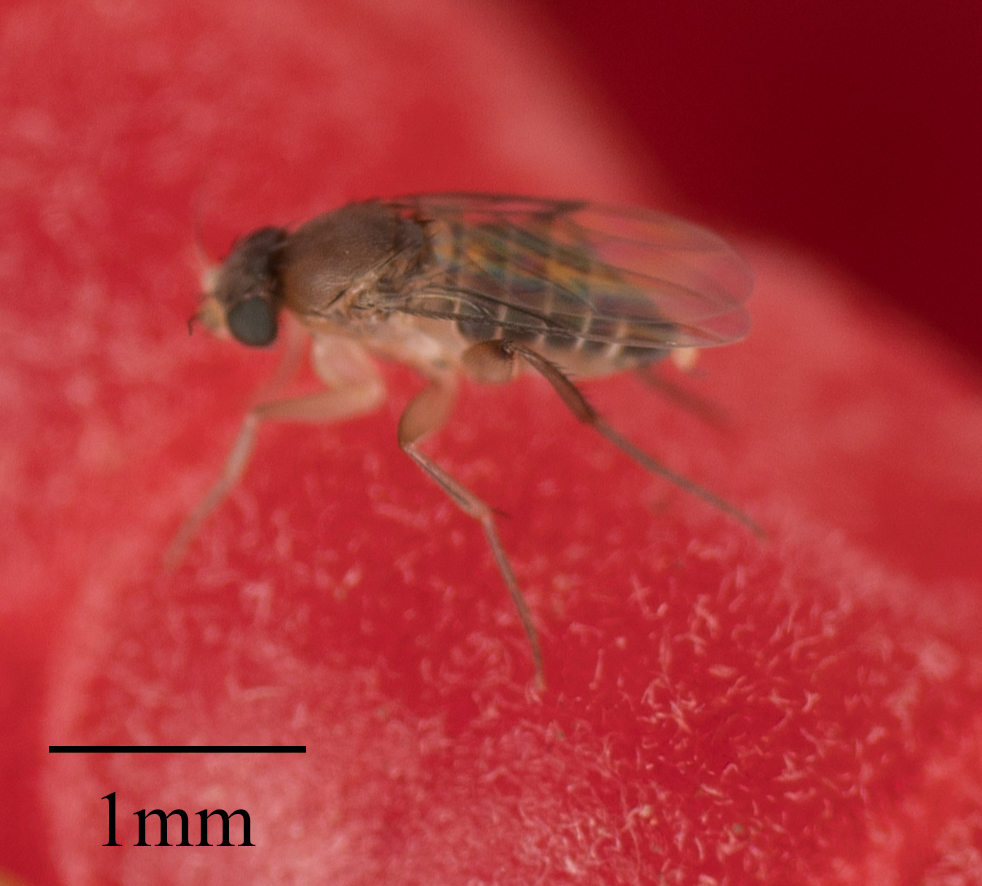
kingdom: Animalia
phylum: Arthropoda
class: Insecta
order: Diptera
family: Phoridae
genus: Megaselia
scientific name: Megaselia scalaris
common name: Scuttle fly
